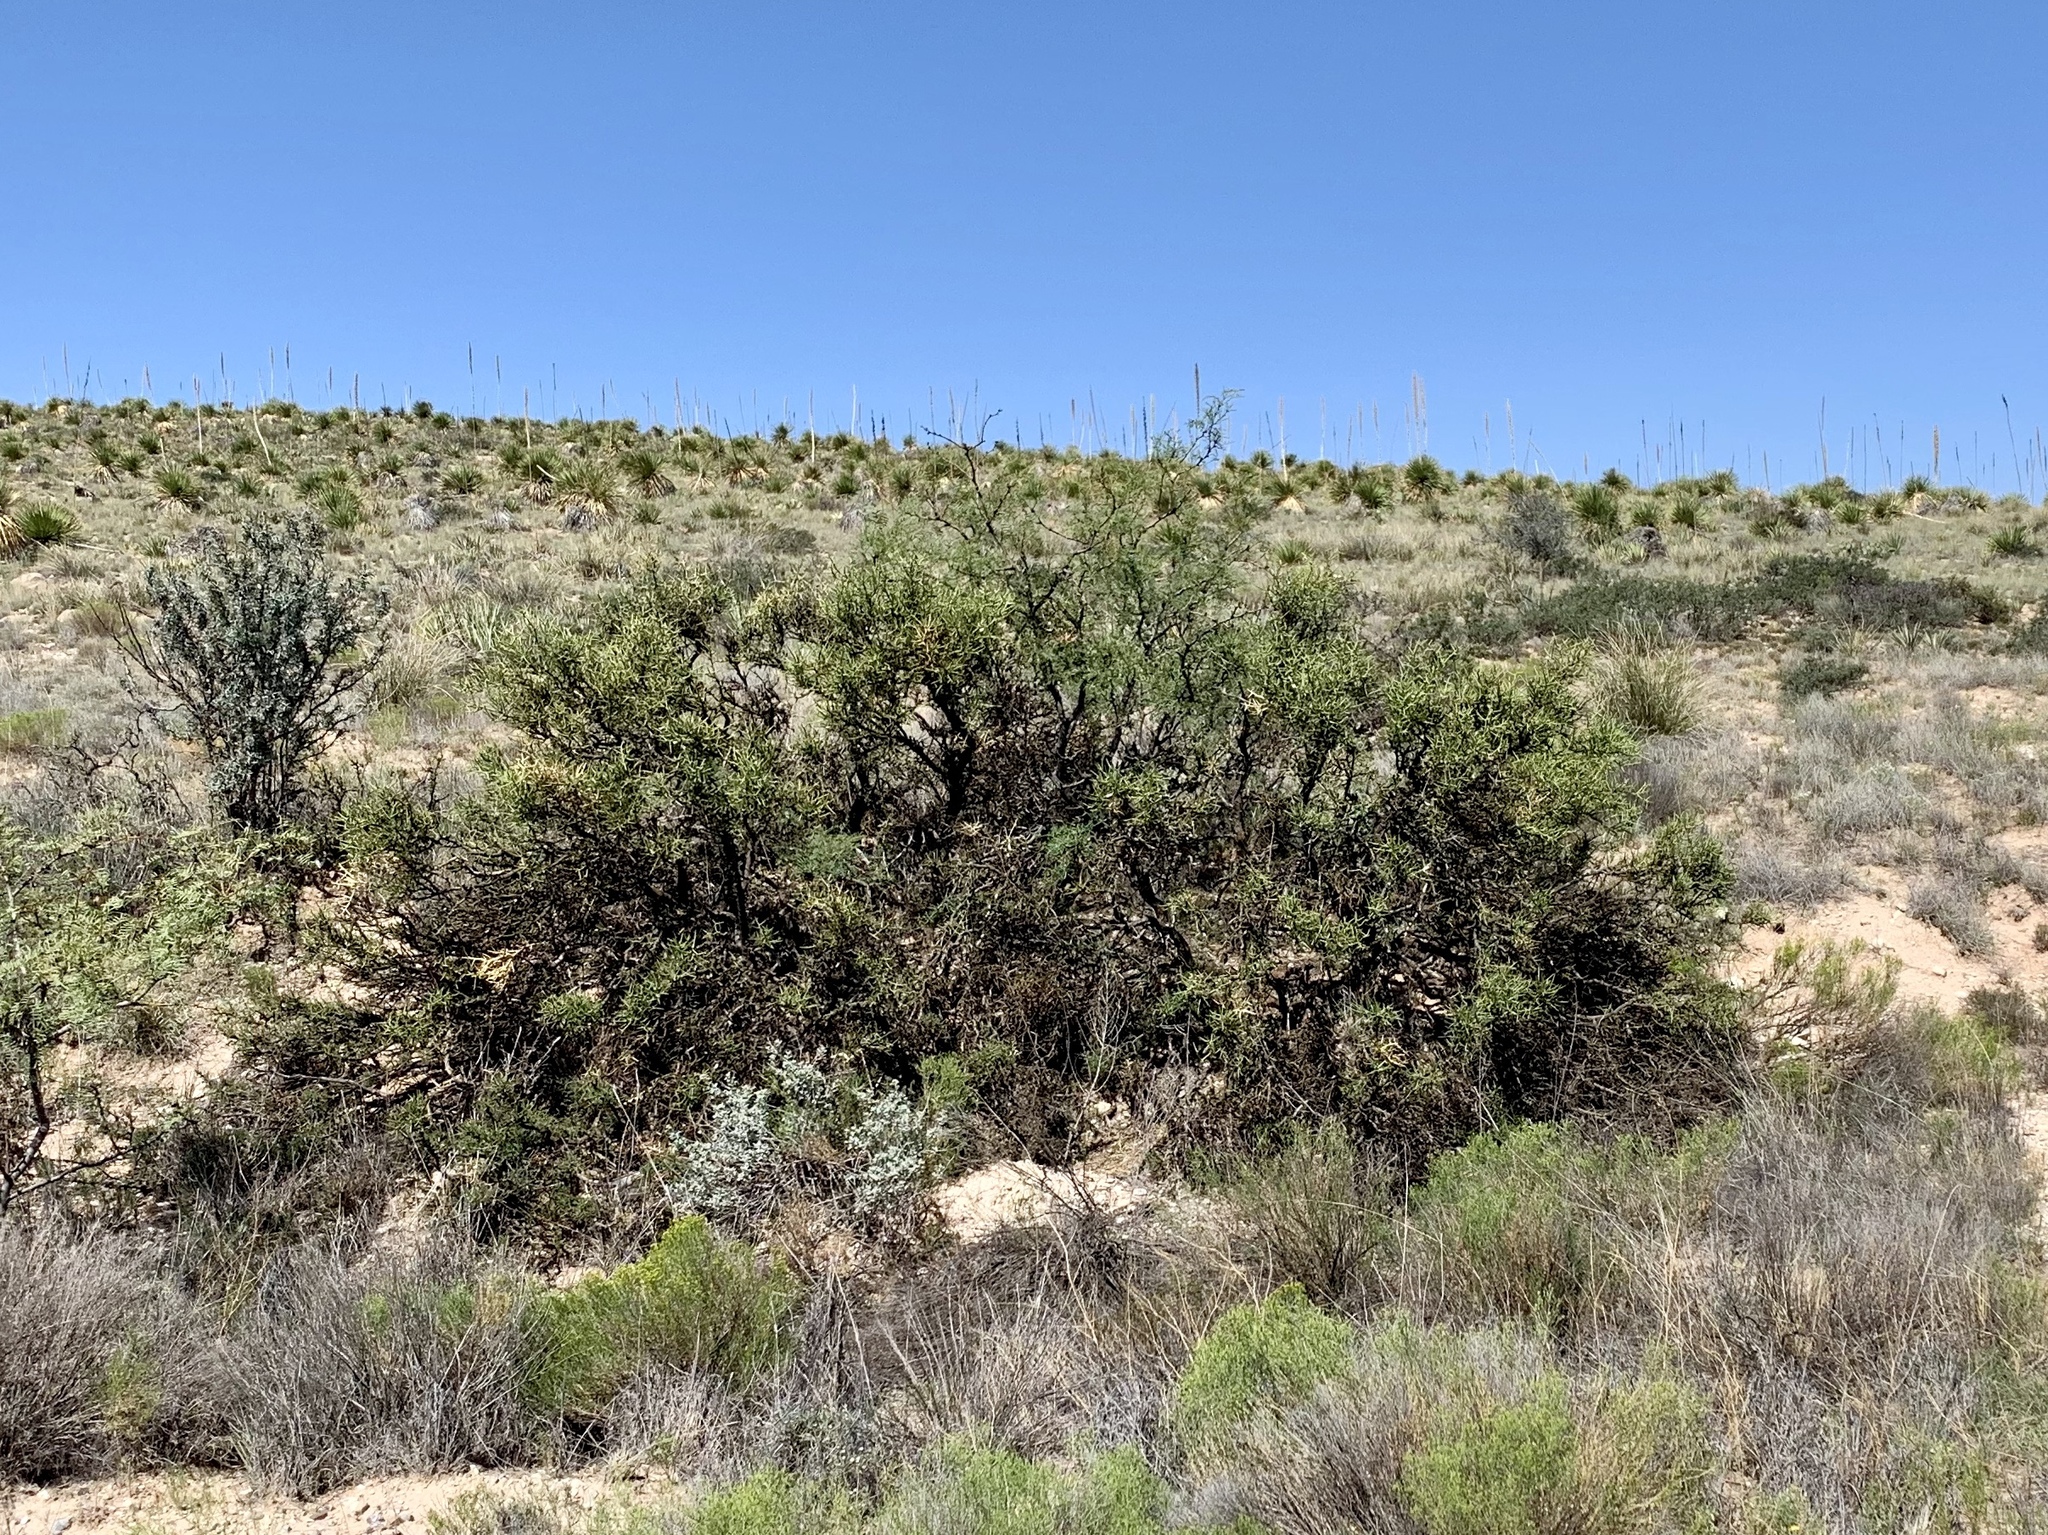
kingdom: Plantae
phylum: Tracheophyta
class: Magnoliopsida
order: Brassicales
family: Koeberliniaceae
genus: Koeberlinia
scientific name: Koeberlinia spinosa
